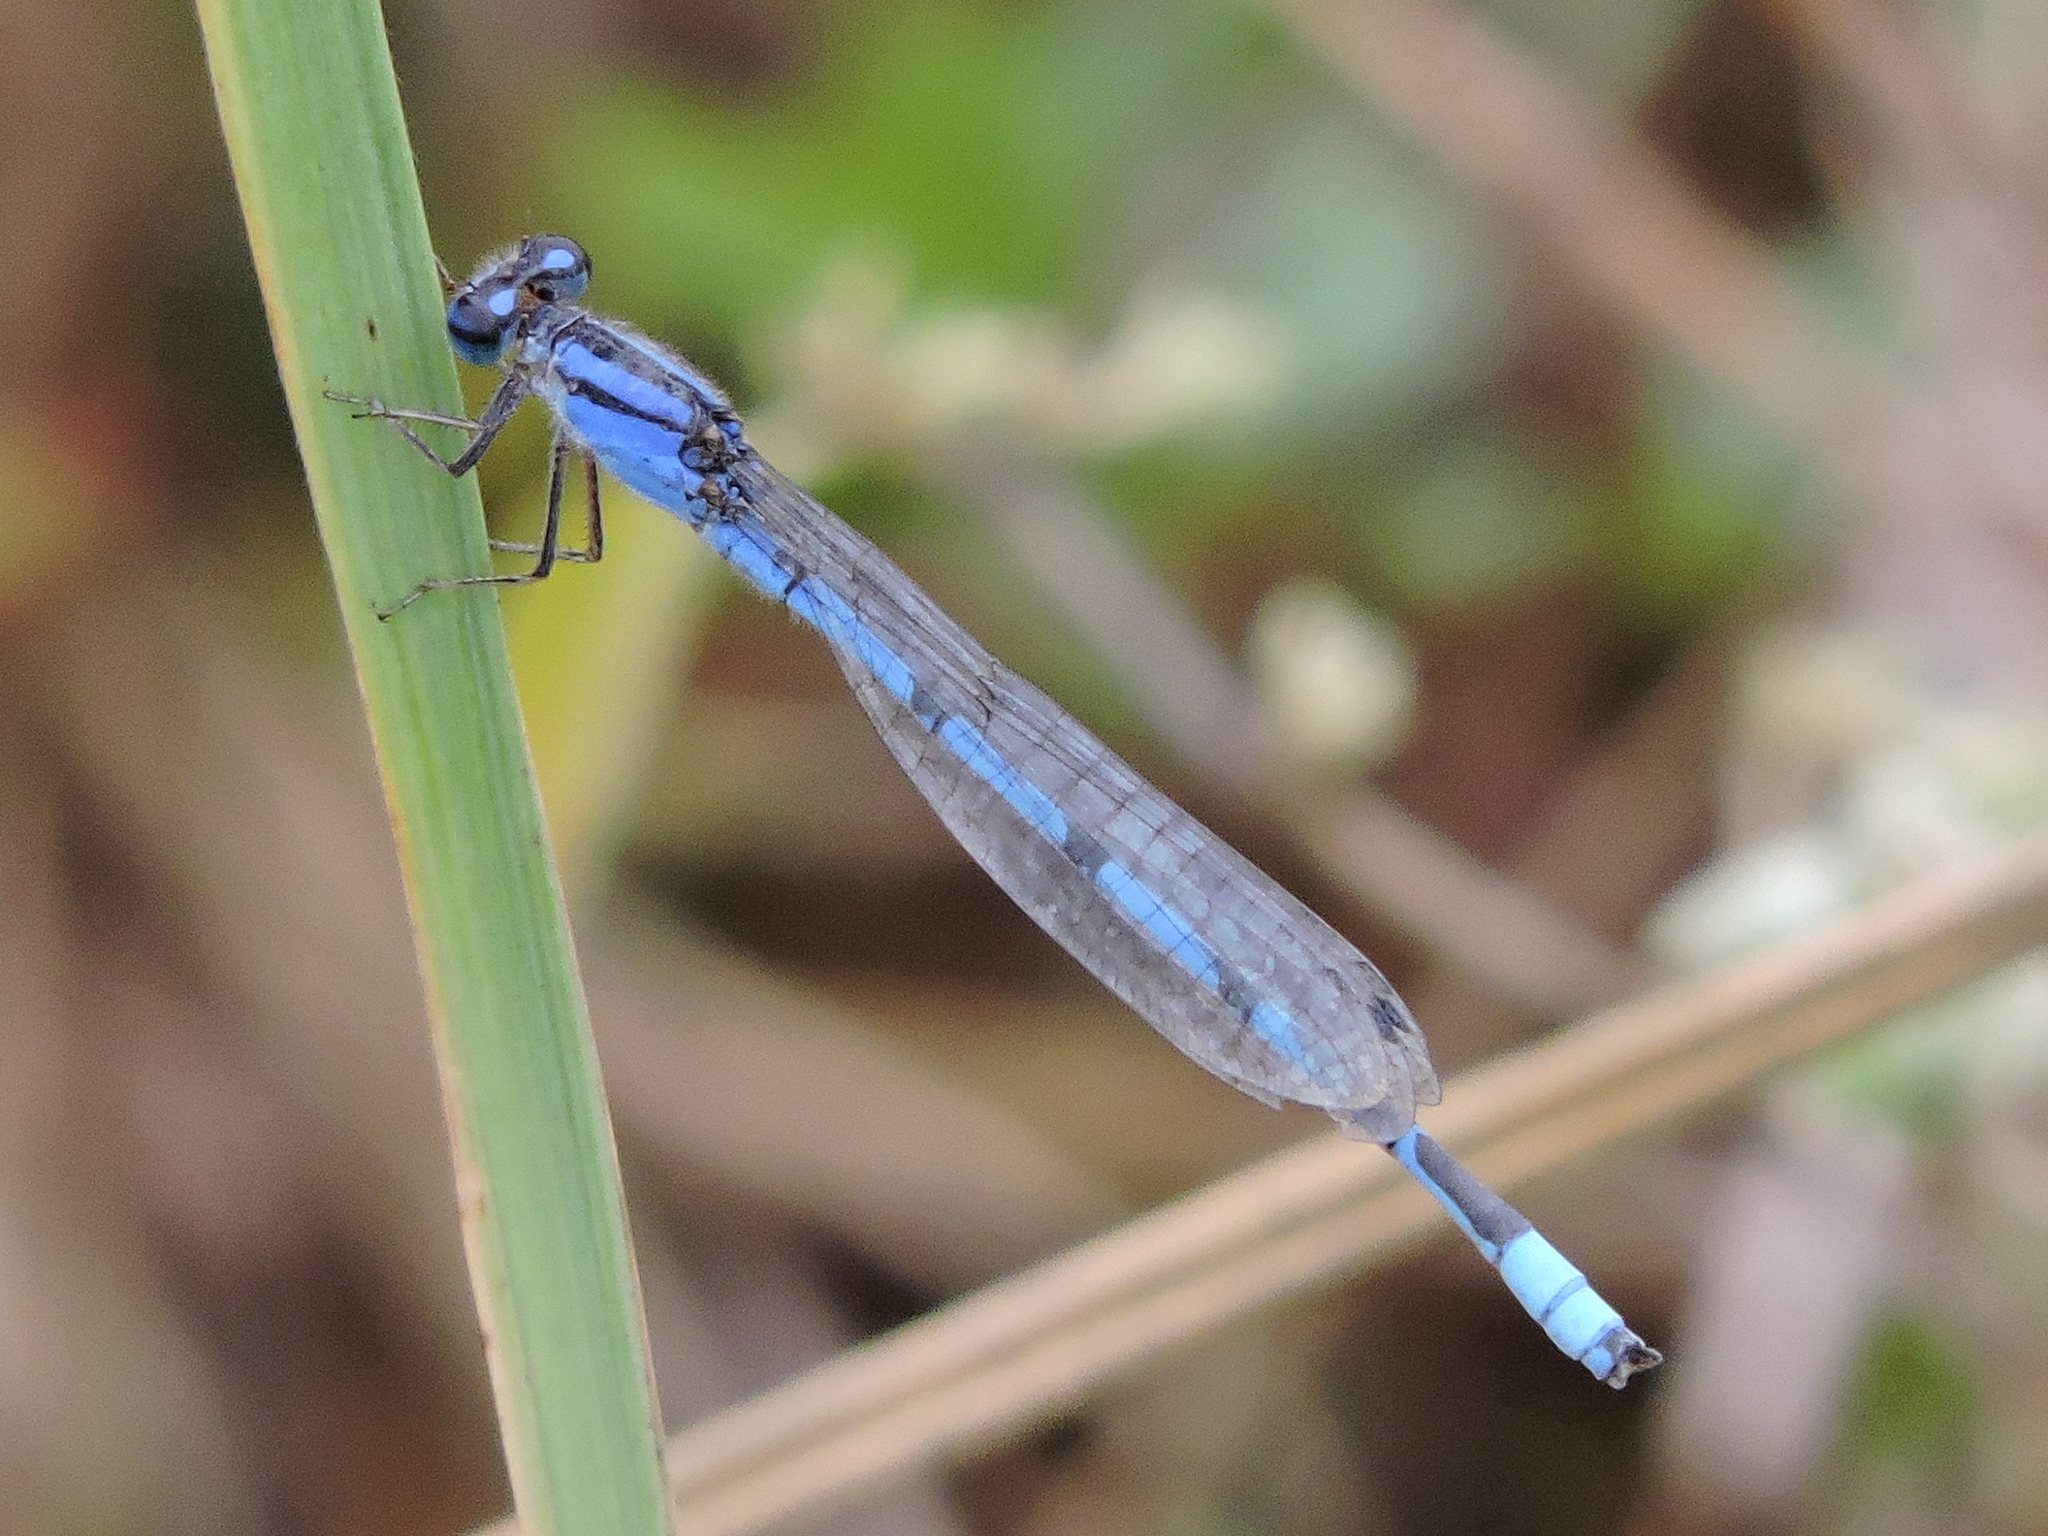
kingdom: Animalia
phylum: Arthropoda
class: Insecta
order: Odonata
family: Coenagrionidae
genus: Enallagma
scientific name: Enallagma civile
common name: Damselfly
